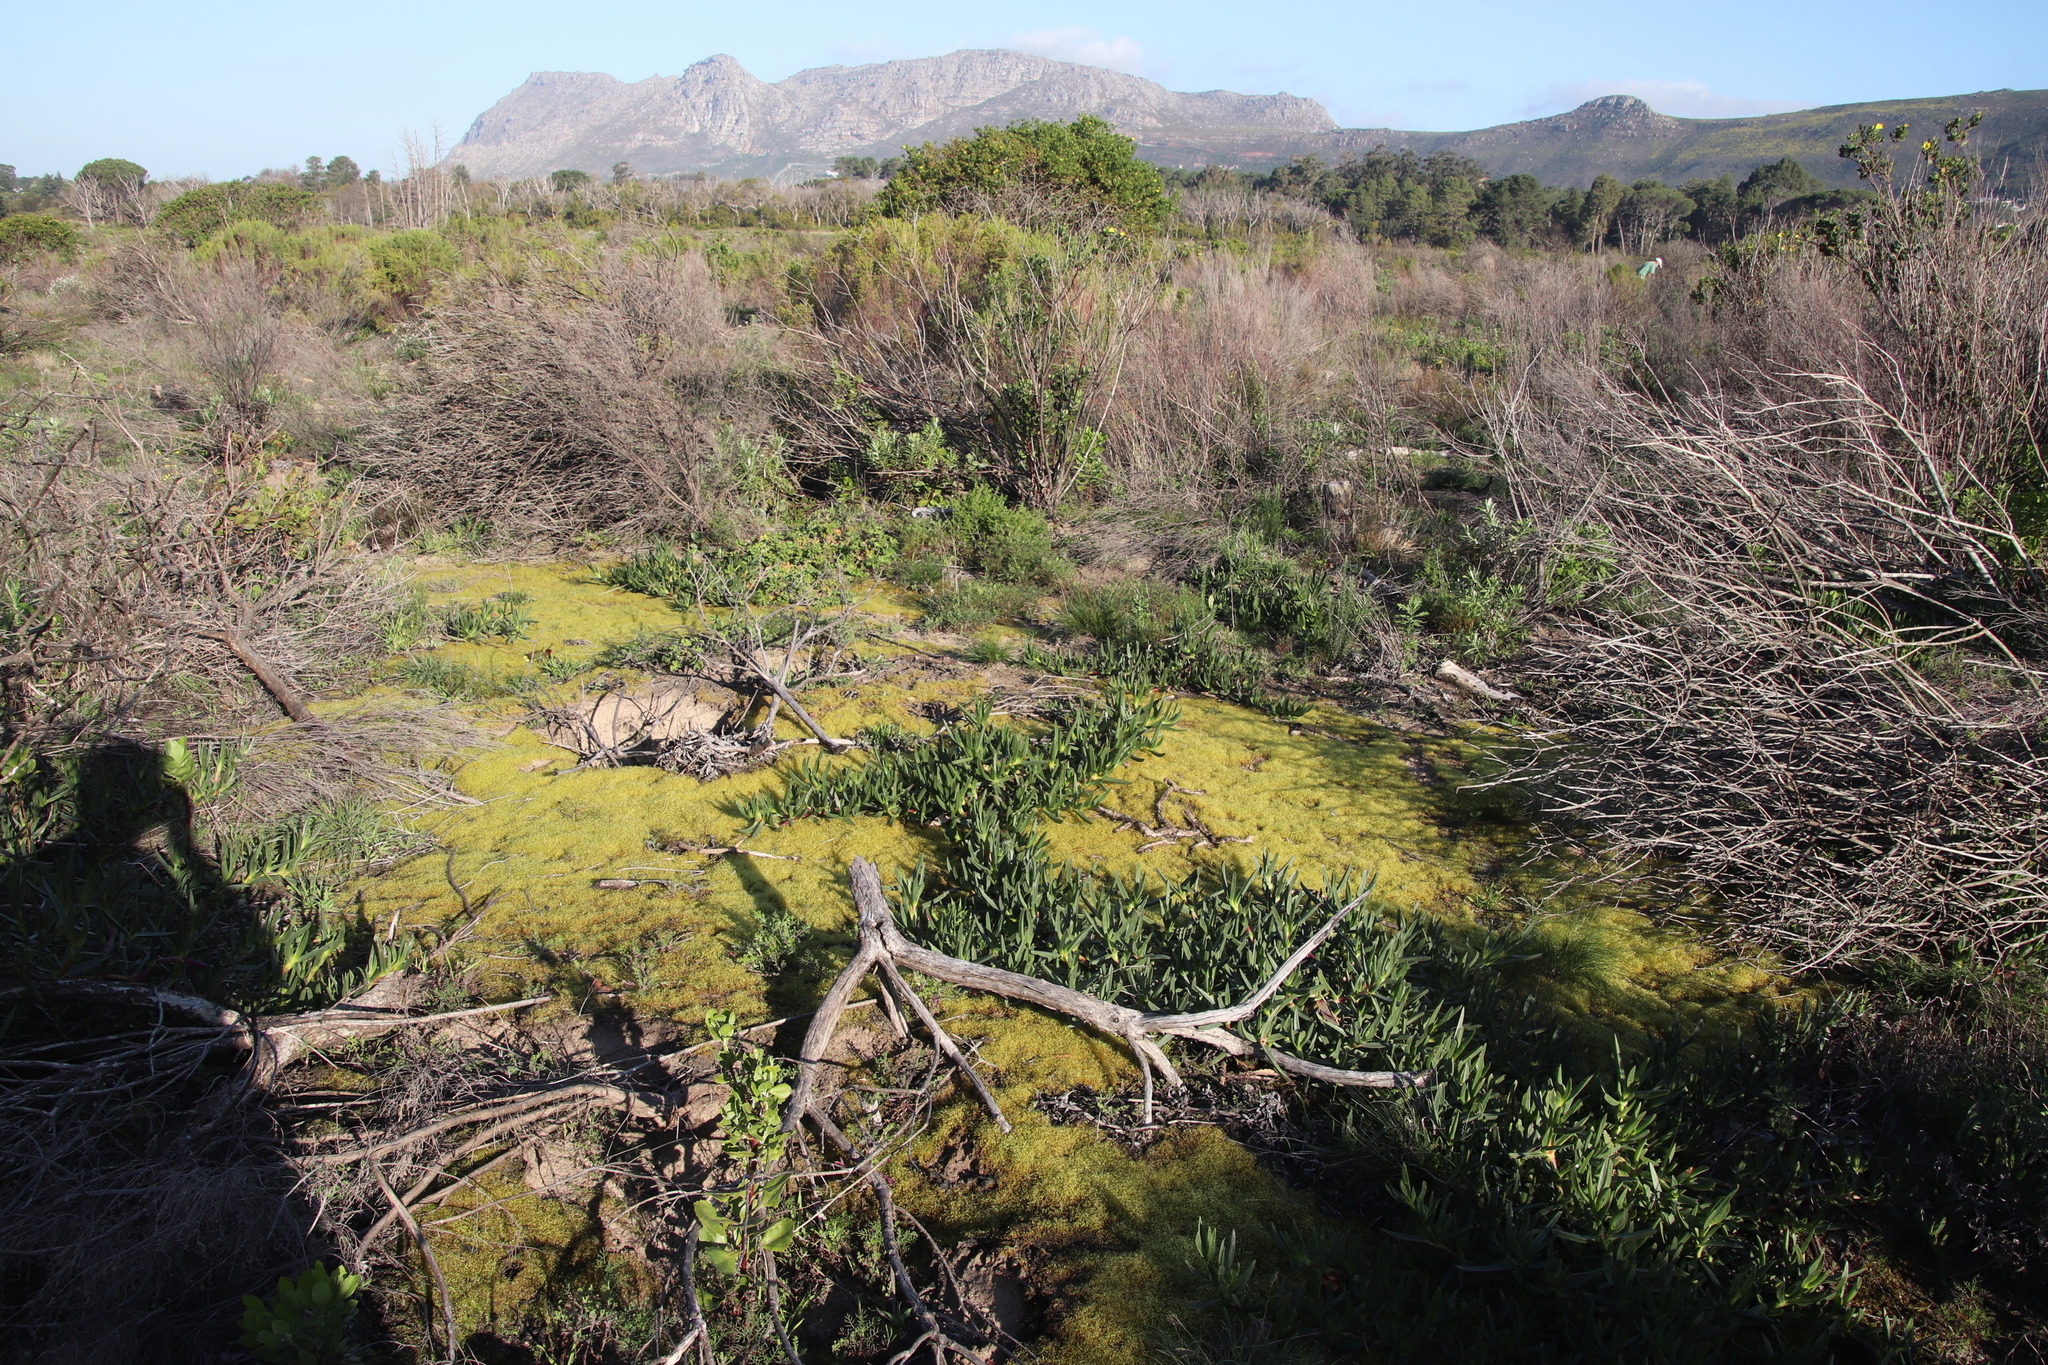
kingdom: Plantae
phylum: Bryophyta
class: Bryopsida
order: Funariales
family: Funariaceae
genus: Funaria
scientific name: Funaria hygrometrica
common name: Common cord moss
